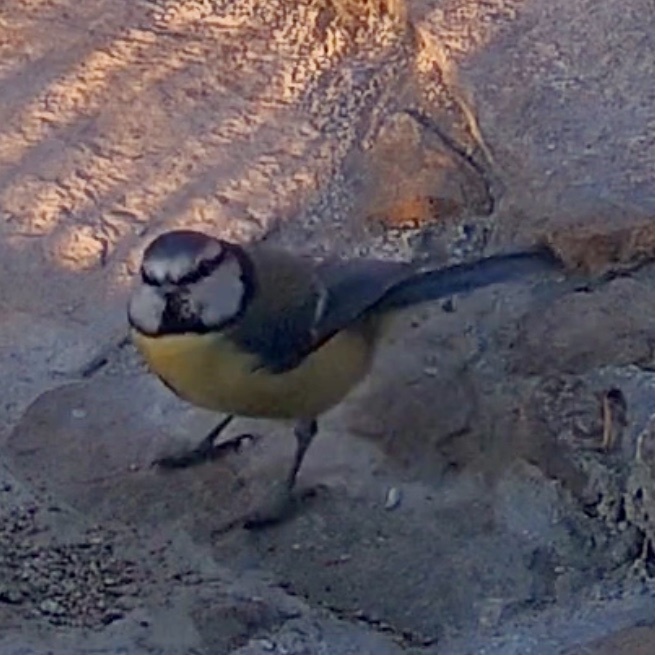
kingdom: Animalia
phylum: Chordata
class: Aves
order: Passeriformes
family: Paridae
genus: Cyanistes
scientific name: Cyanistes caeruleus
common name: Eurasian blue tit
